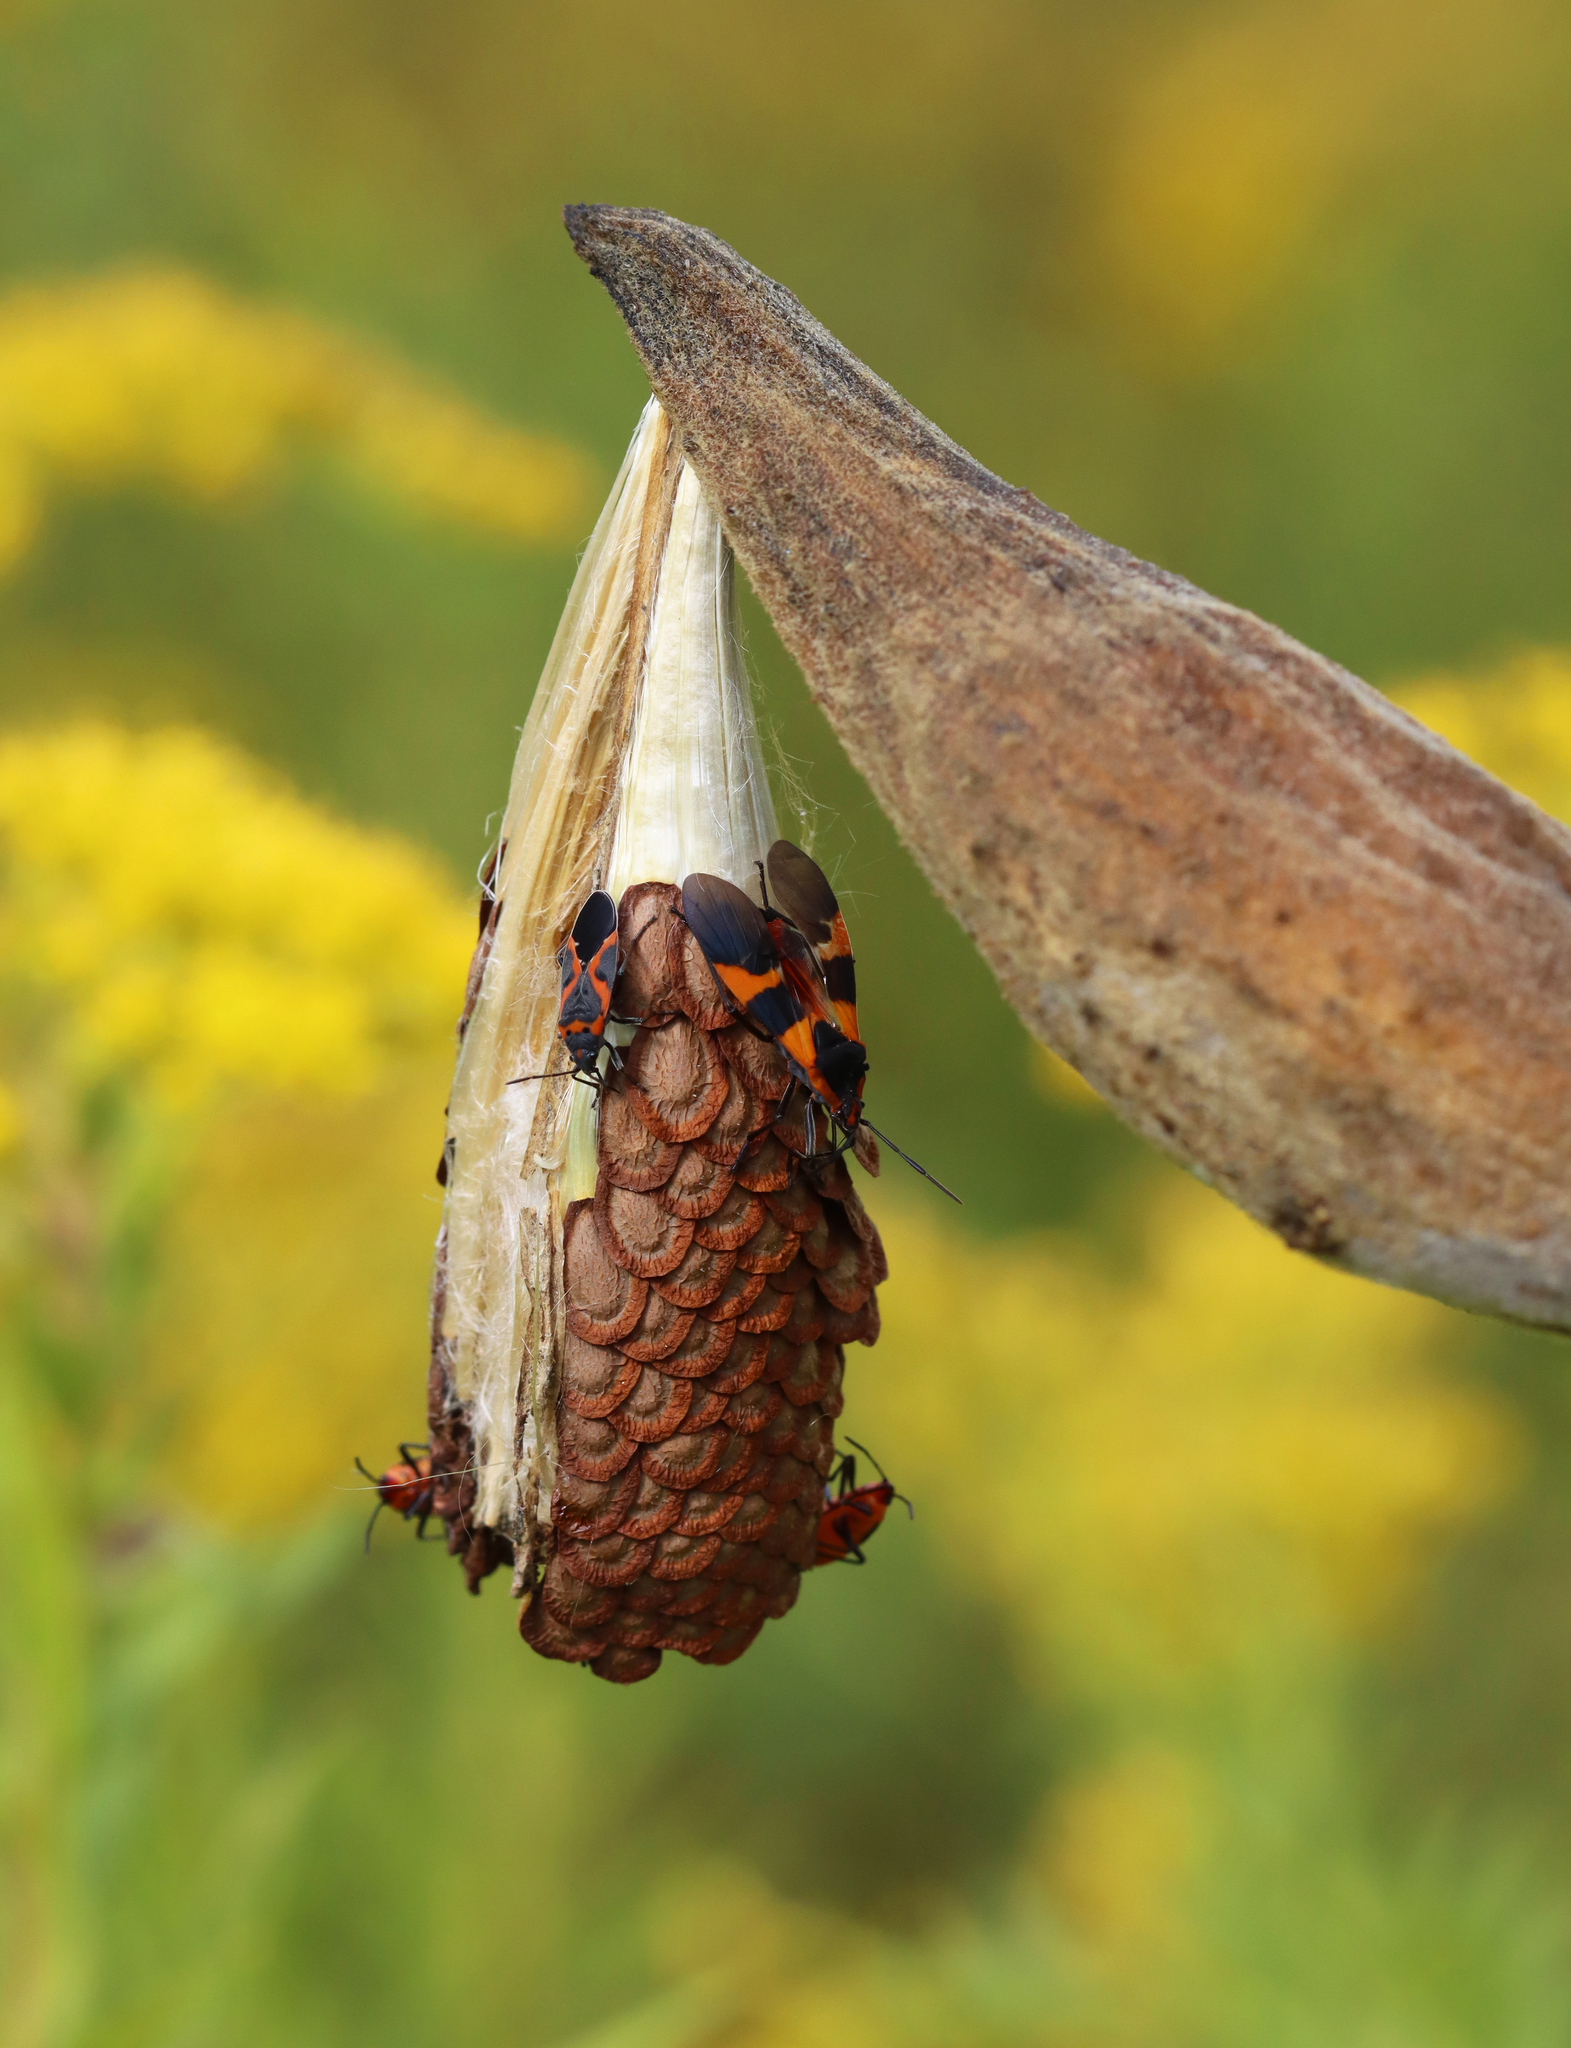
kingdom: Animalia
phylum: Arthropoda
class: Insecta
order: Hemiptera
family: Lygaeidae
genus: Oncopeltus
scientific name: Oncopeltus fasciatus
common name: Large milkweed bug
